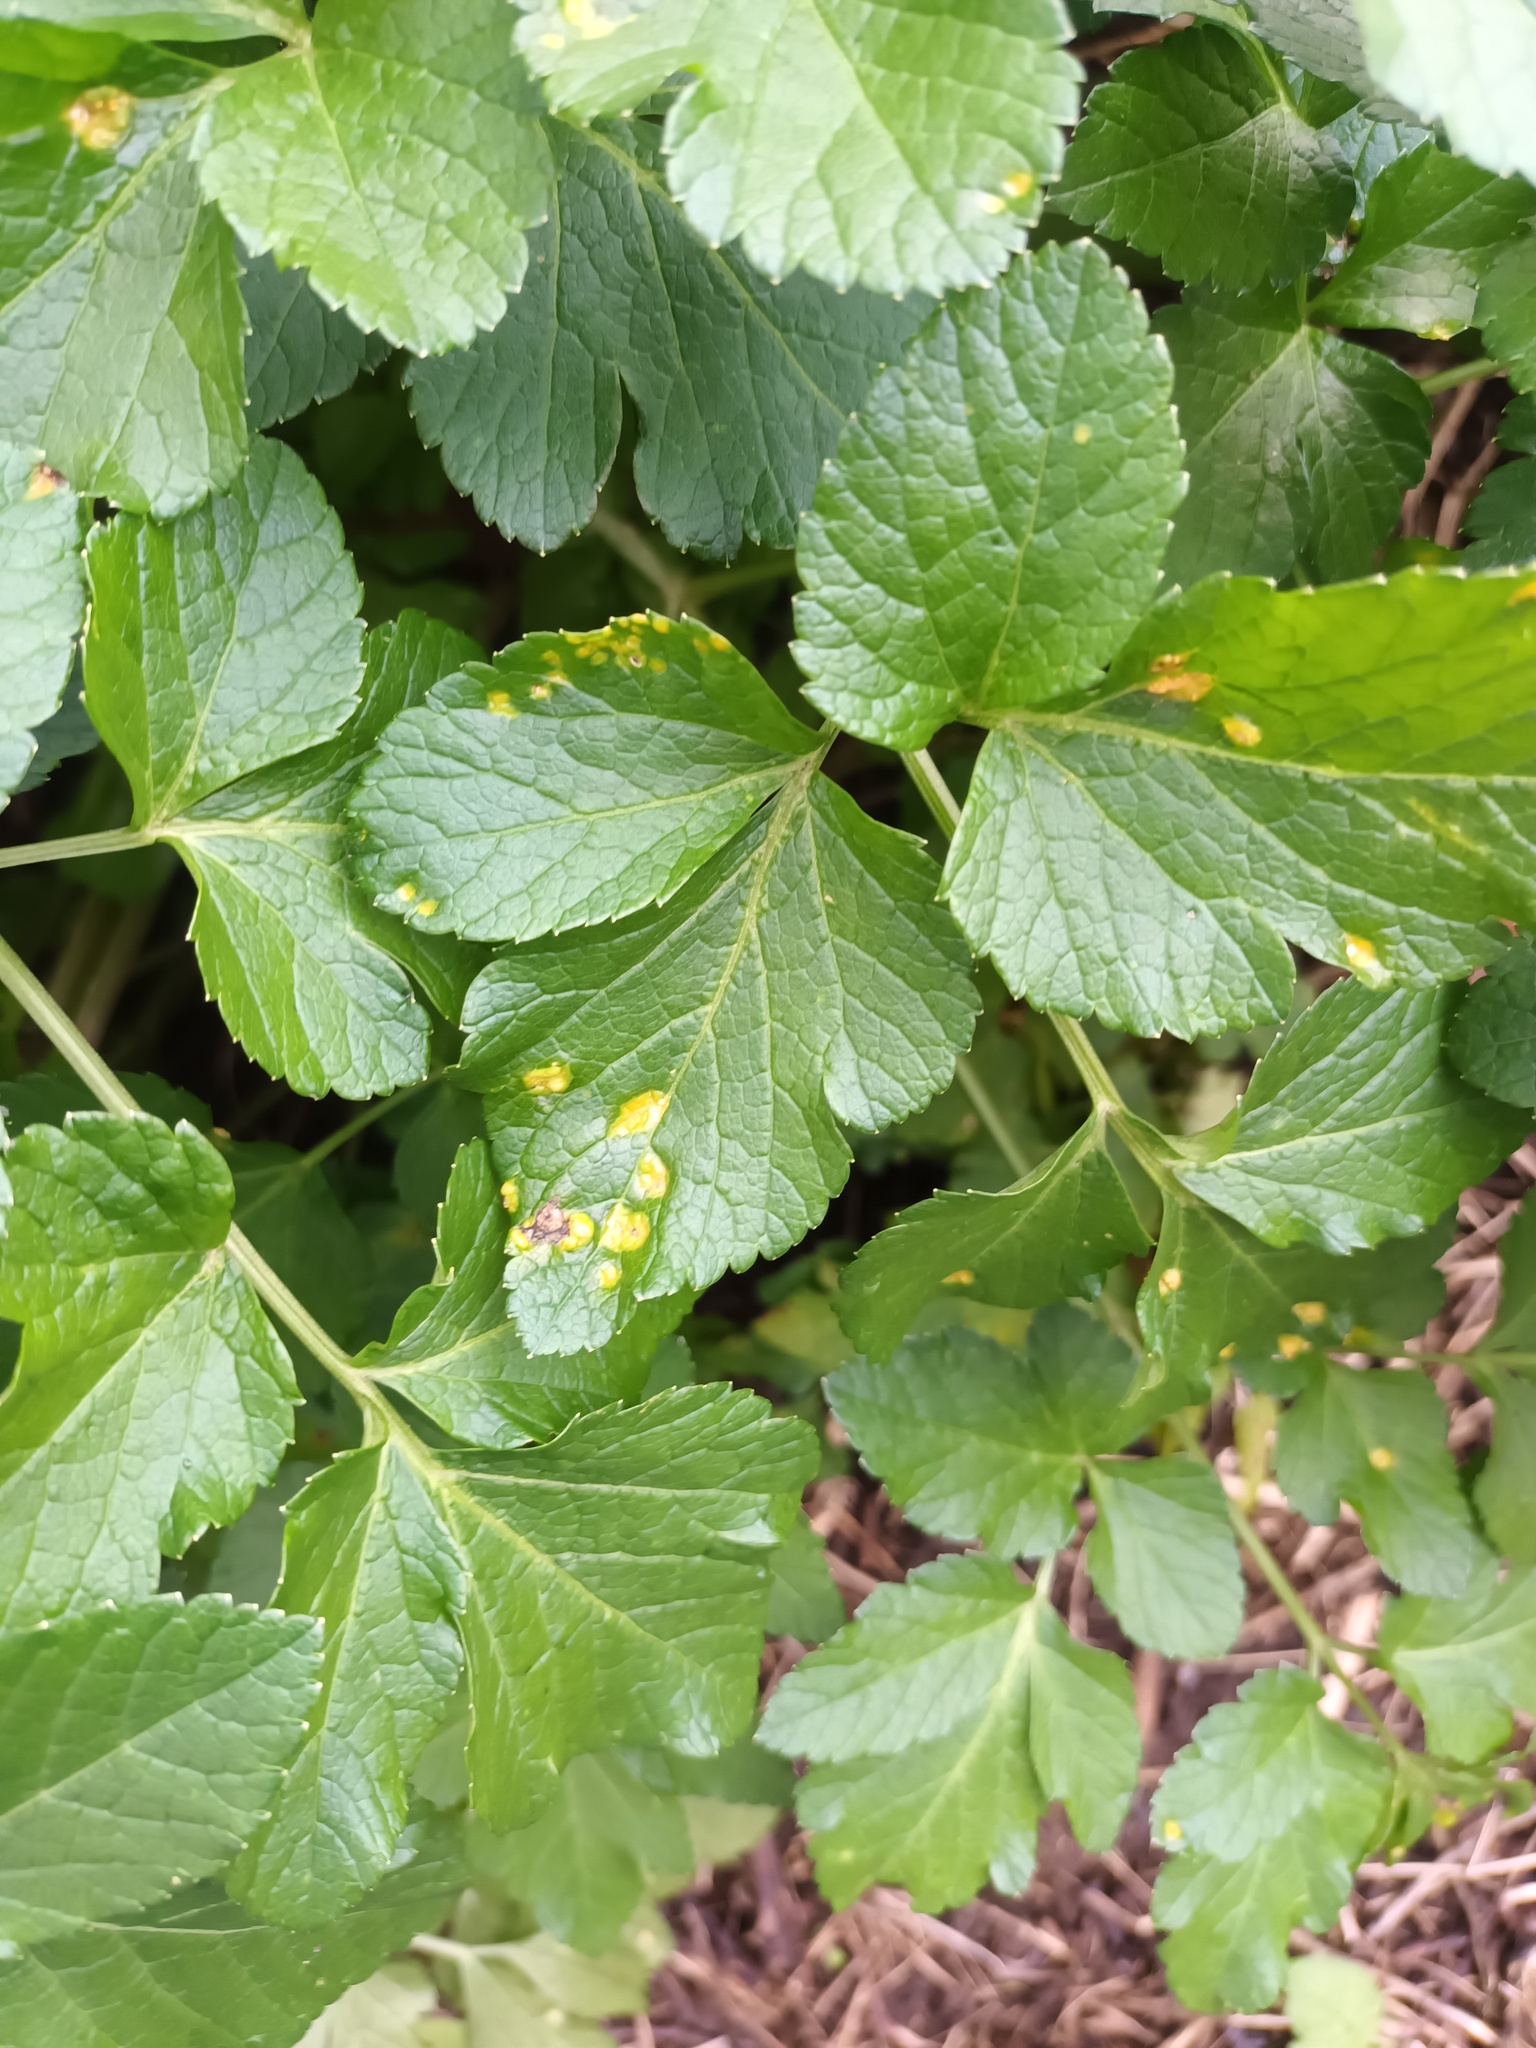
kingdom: Fungi
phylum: Basidiomycota
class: Pucciniomycetes
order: Pucciniales
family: Pucciniaceae
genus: Puccinia
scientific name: Puccinia smyrnii
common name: Alexanders rust
